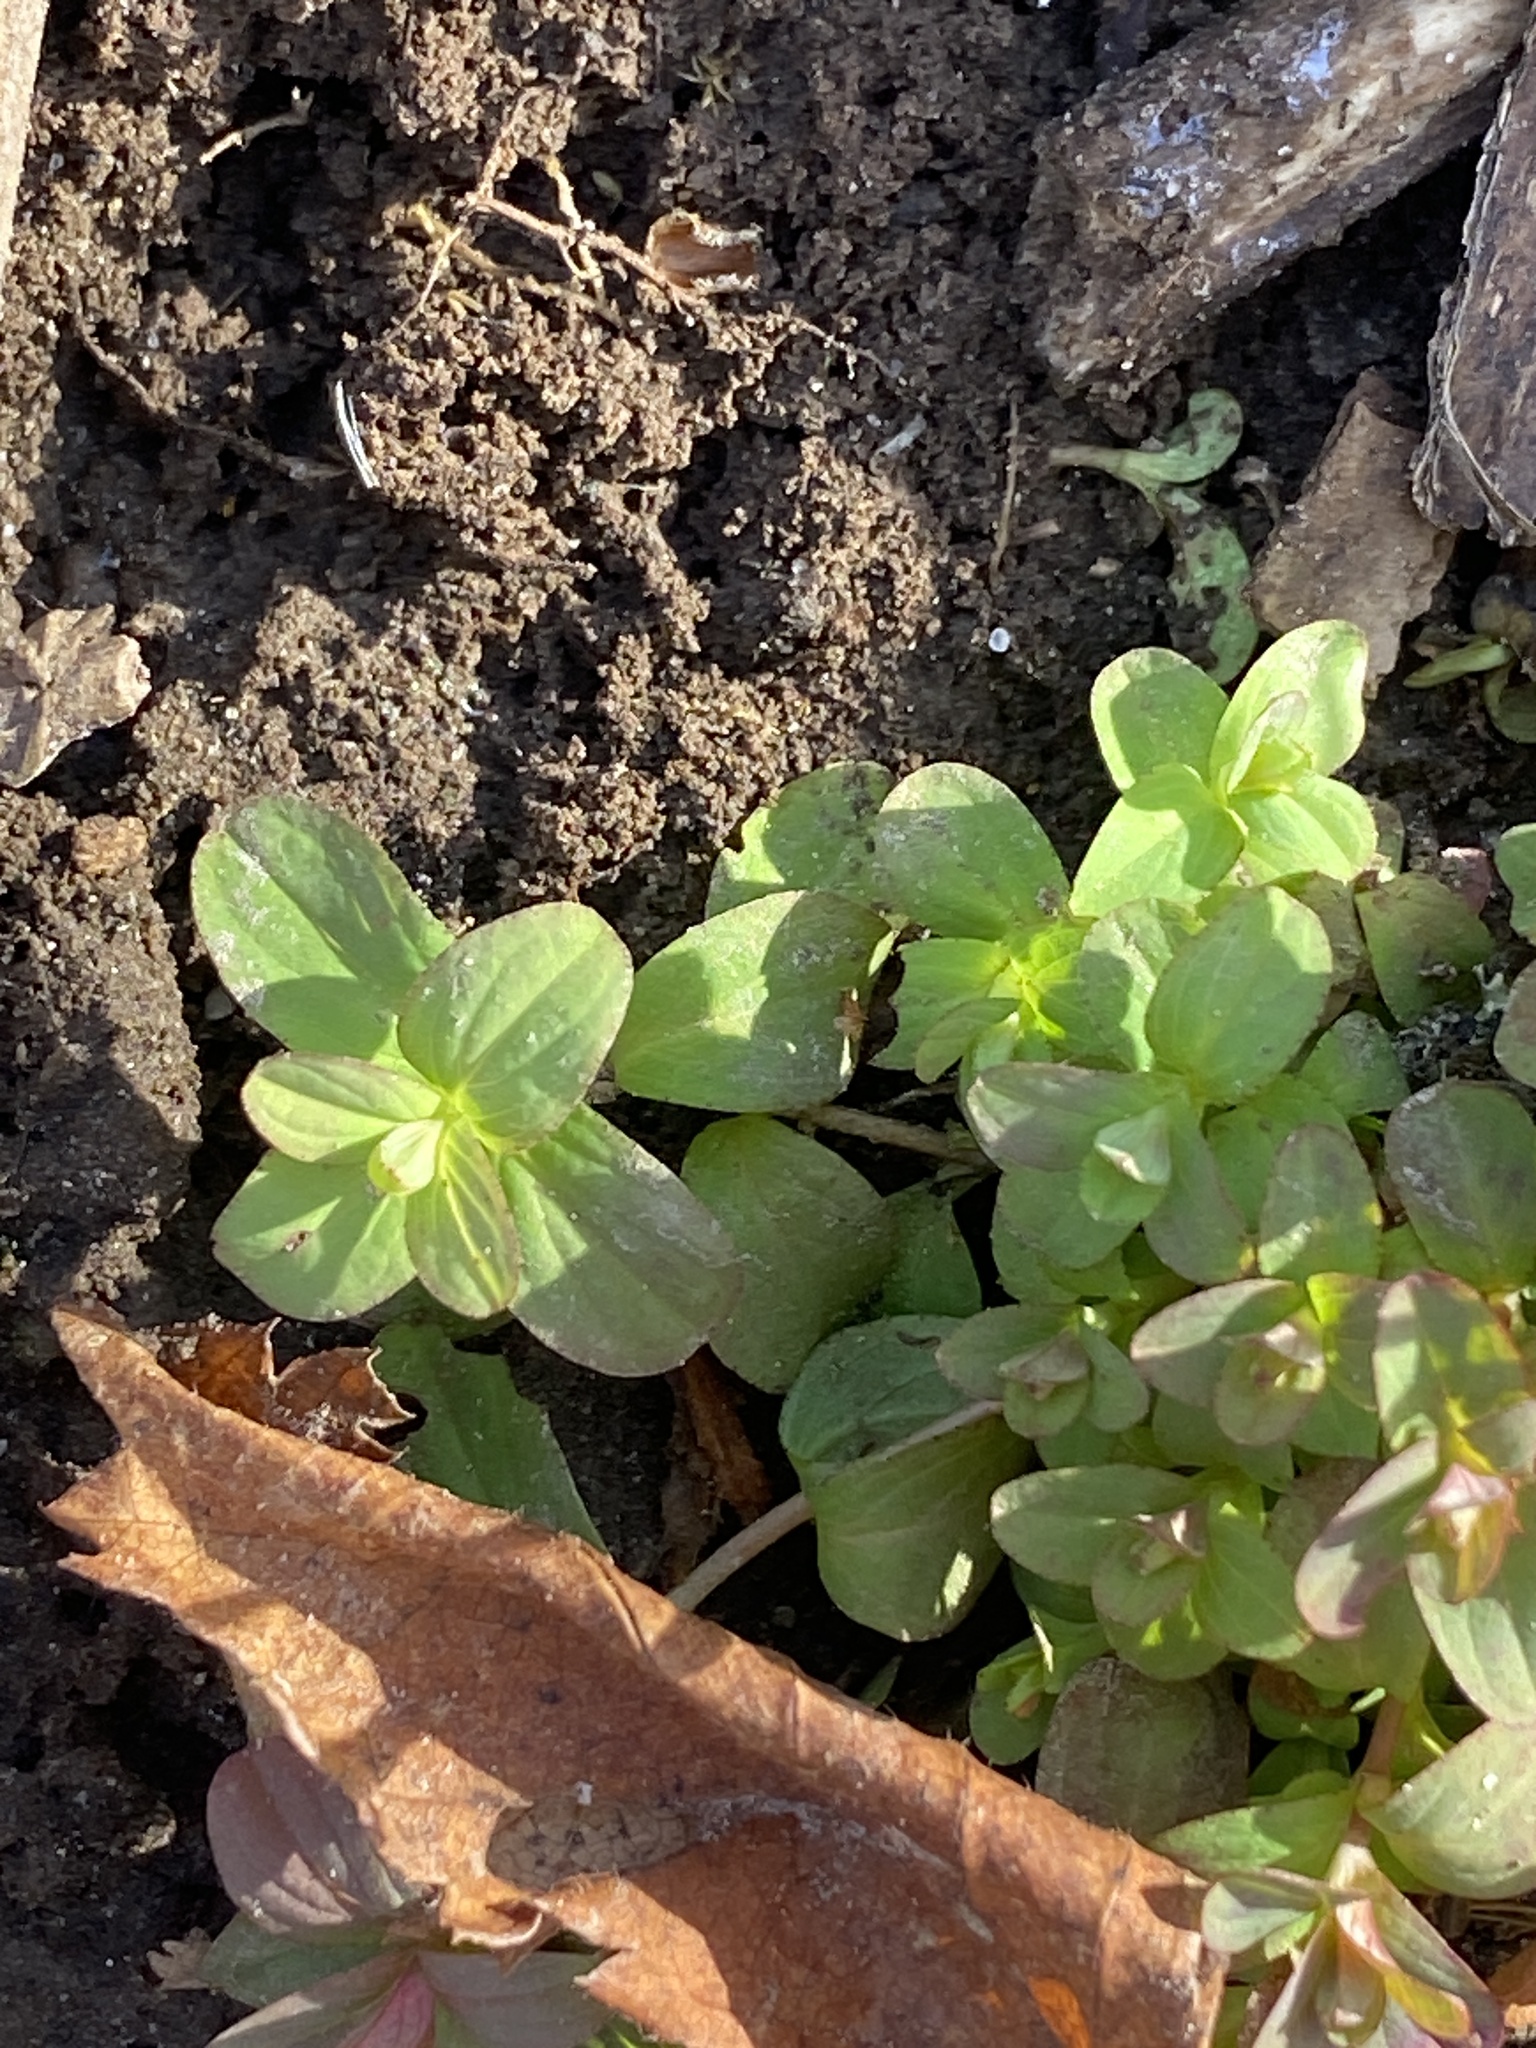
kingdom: Plantae
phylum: Tracheophyta
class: Magnoliopsida
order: Malpighiales
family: Hypericaceae
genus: Hypericum
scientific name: Hypericum perforatum
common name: Common st. johnswort
